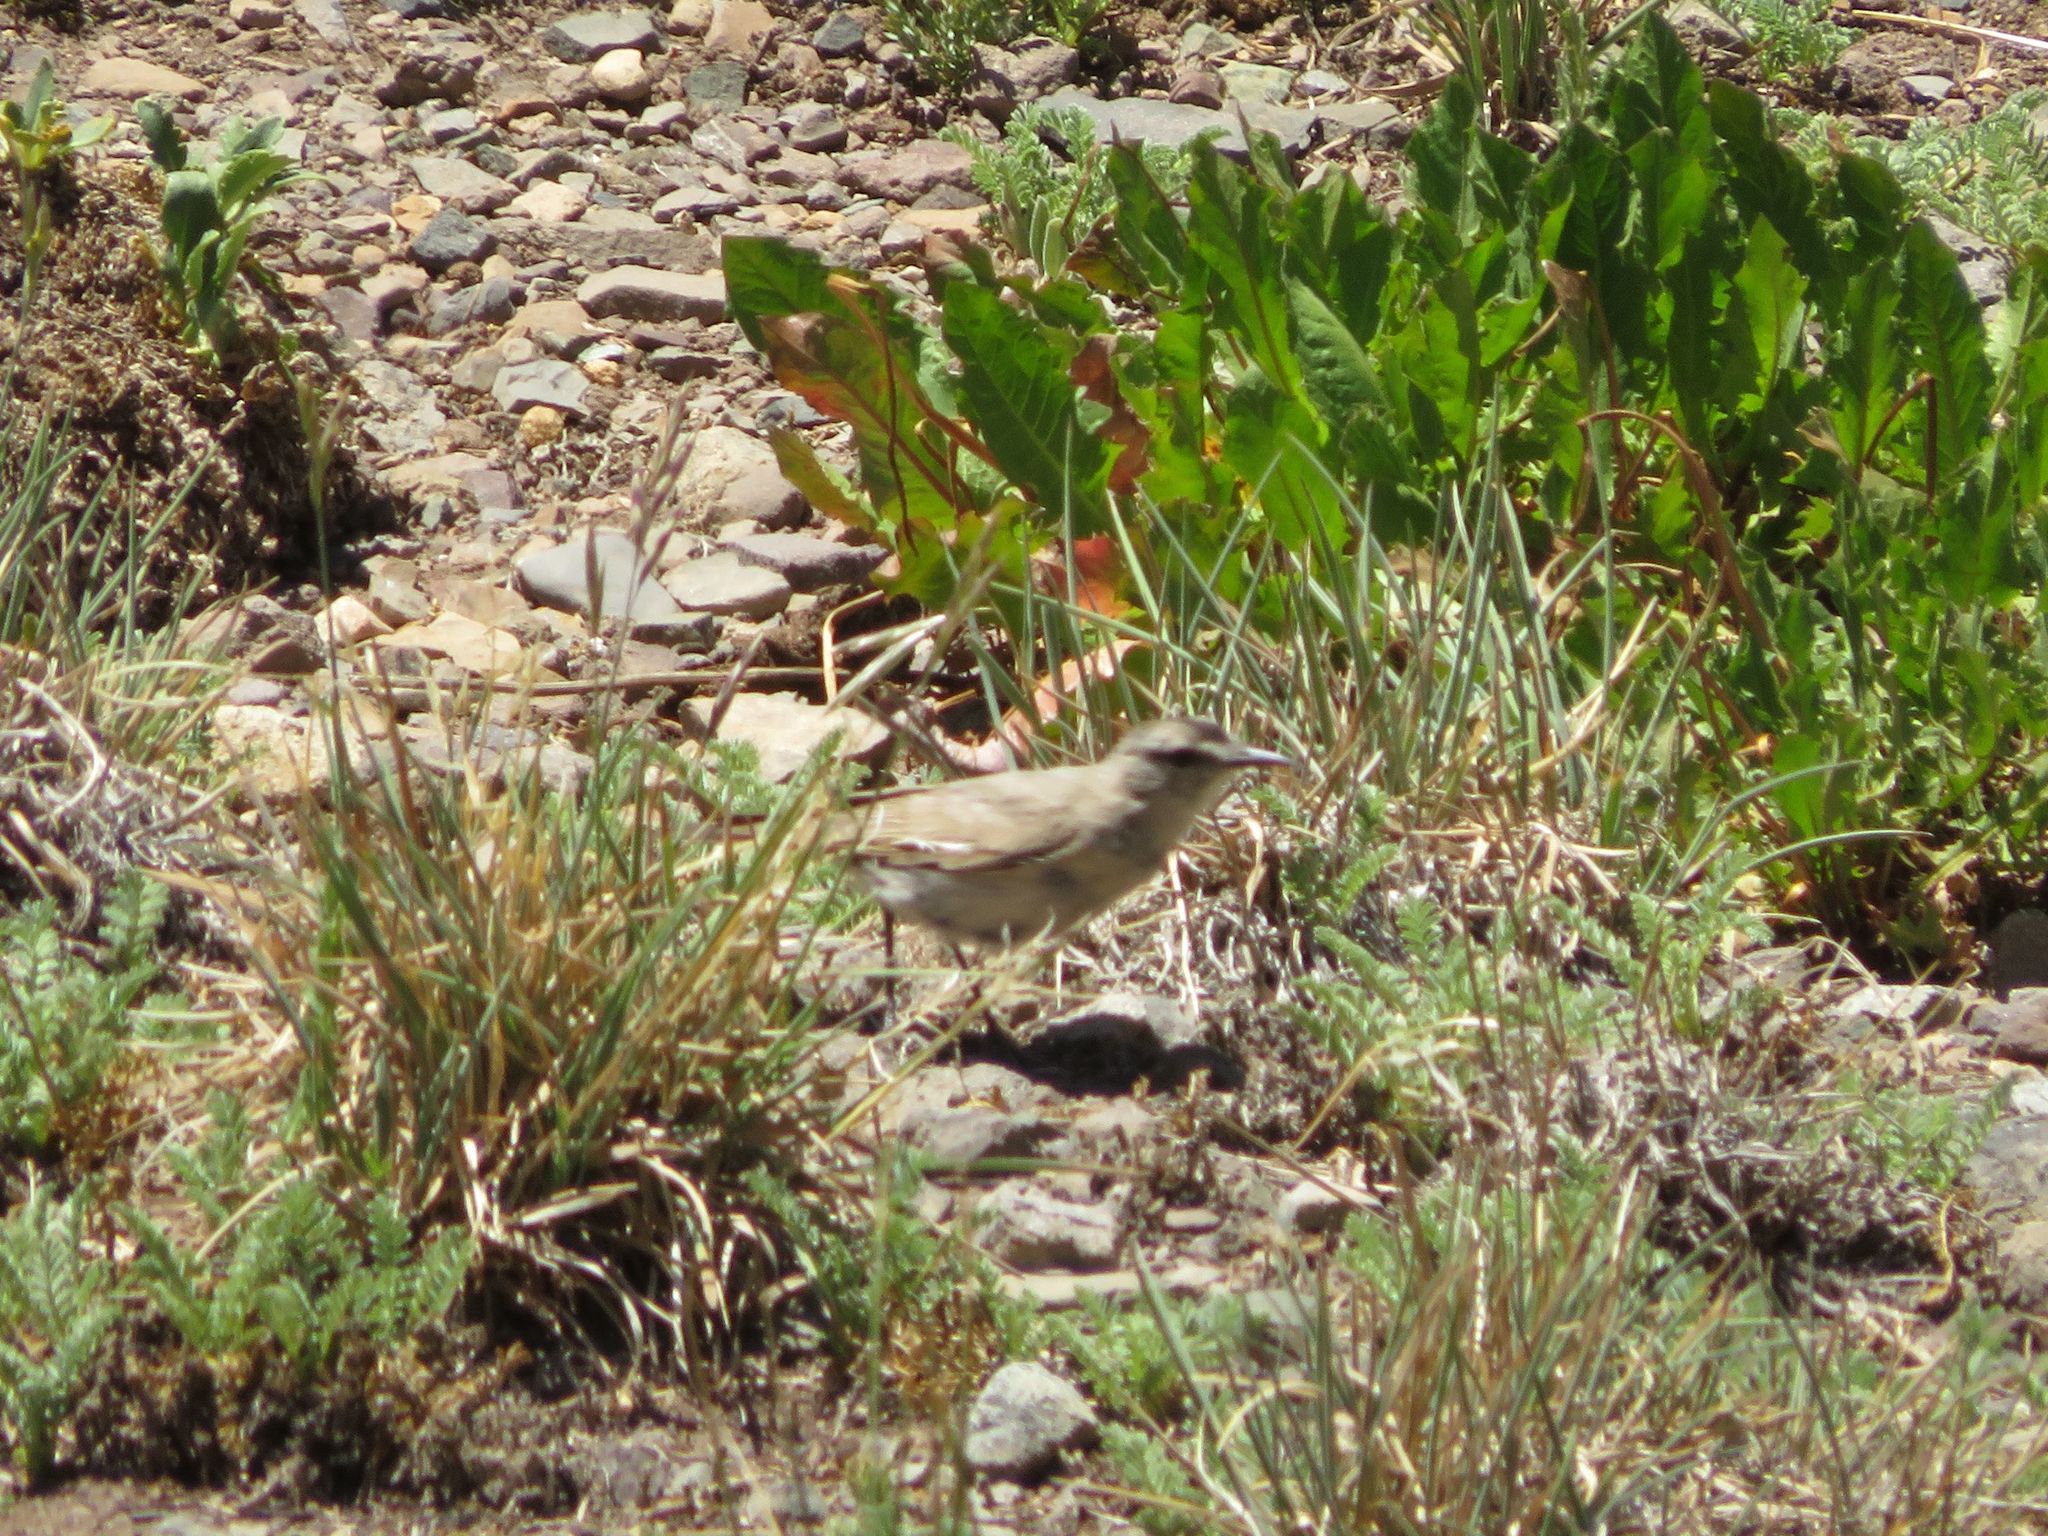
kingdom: Animalia
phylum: Chordata
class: Aves
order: Passeriformes
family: Tyrannidae
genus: Muscisaxicola
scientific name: Muscisaxicola frontalis
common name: Black-fronted ground tyrant
